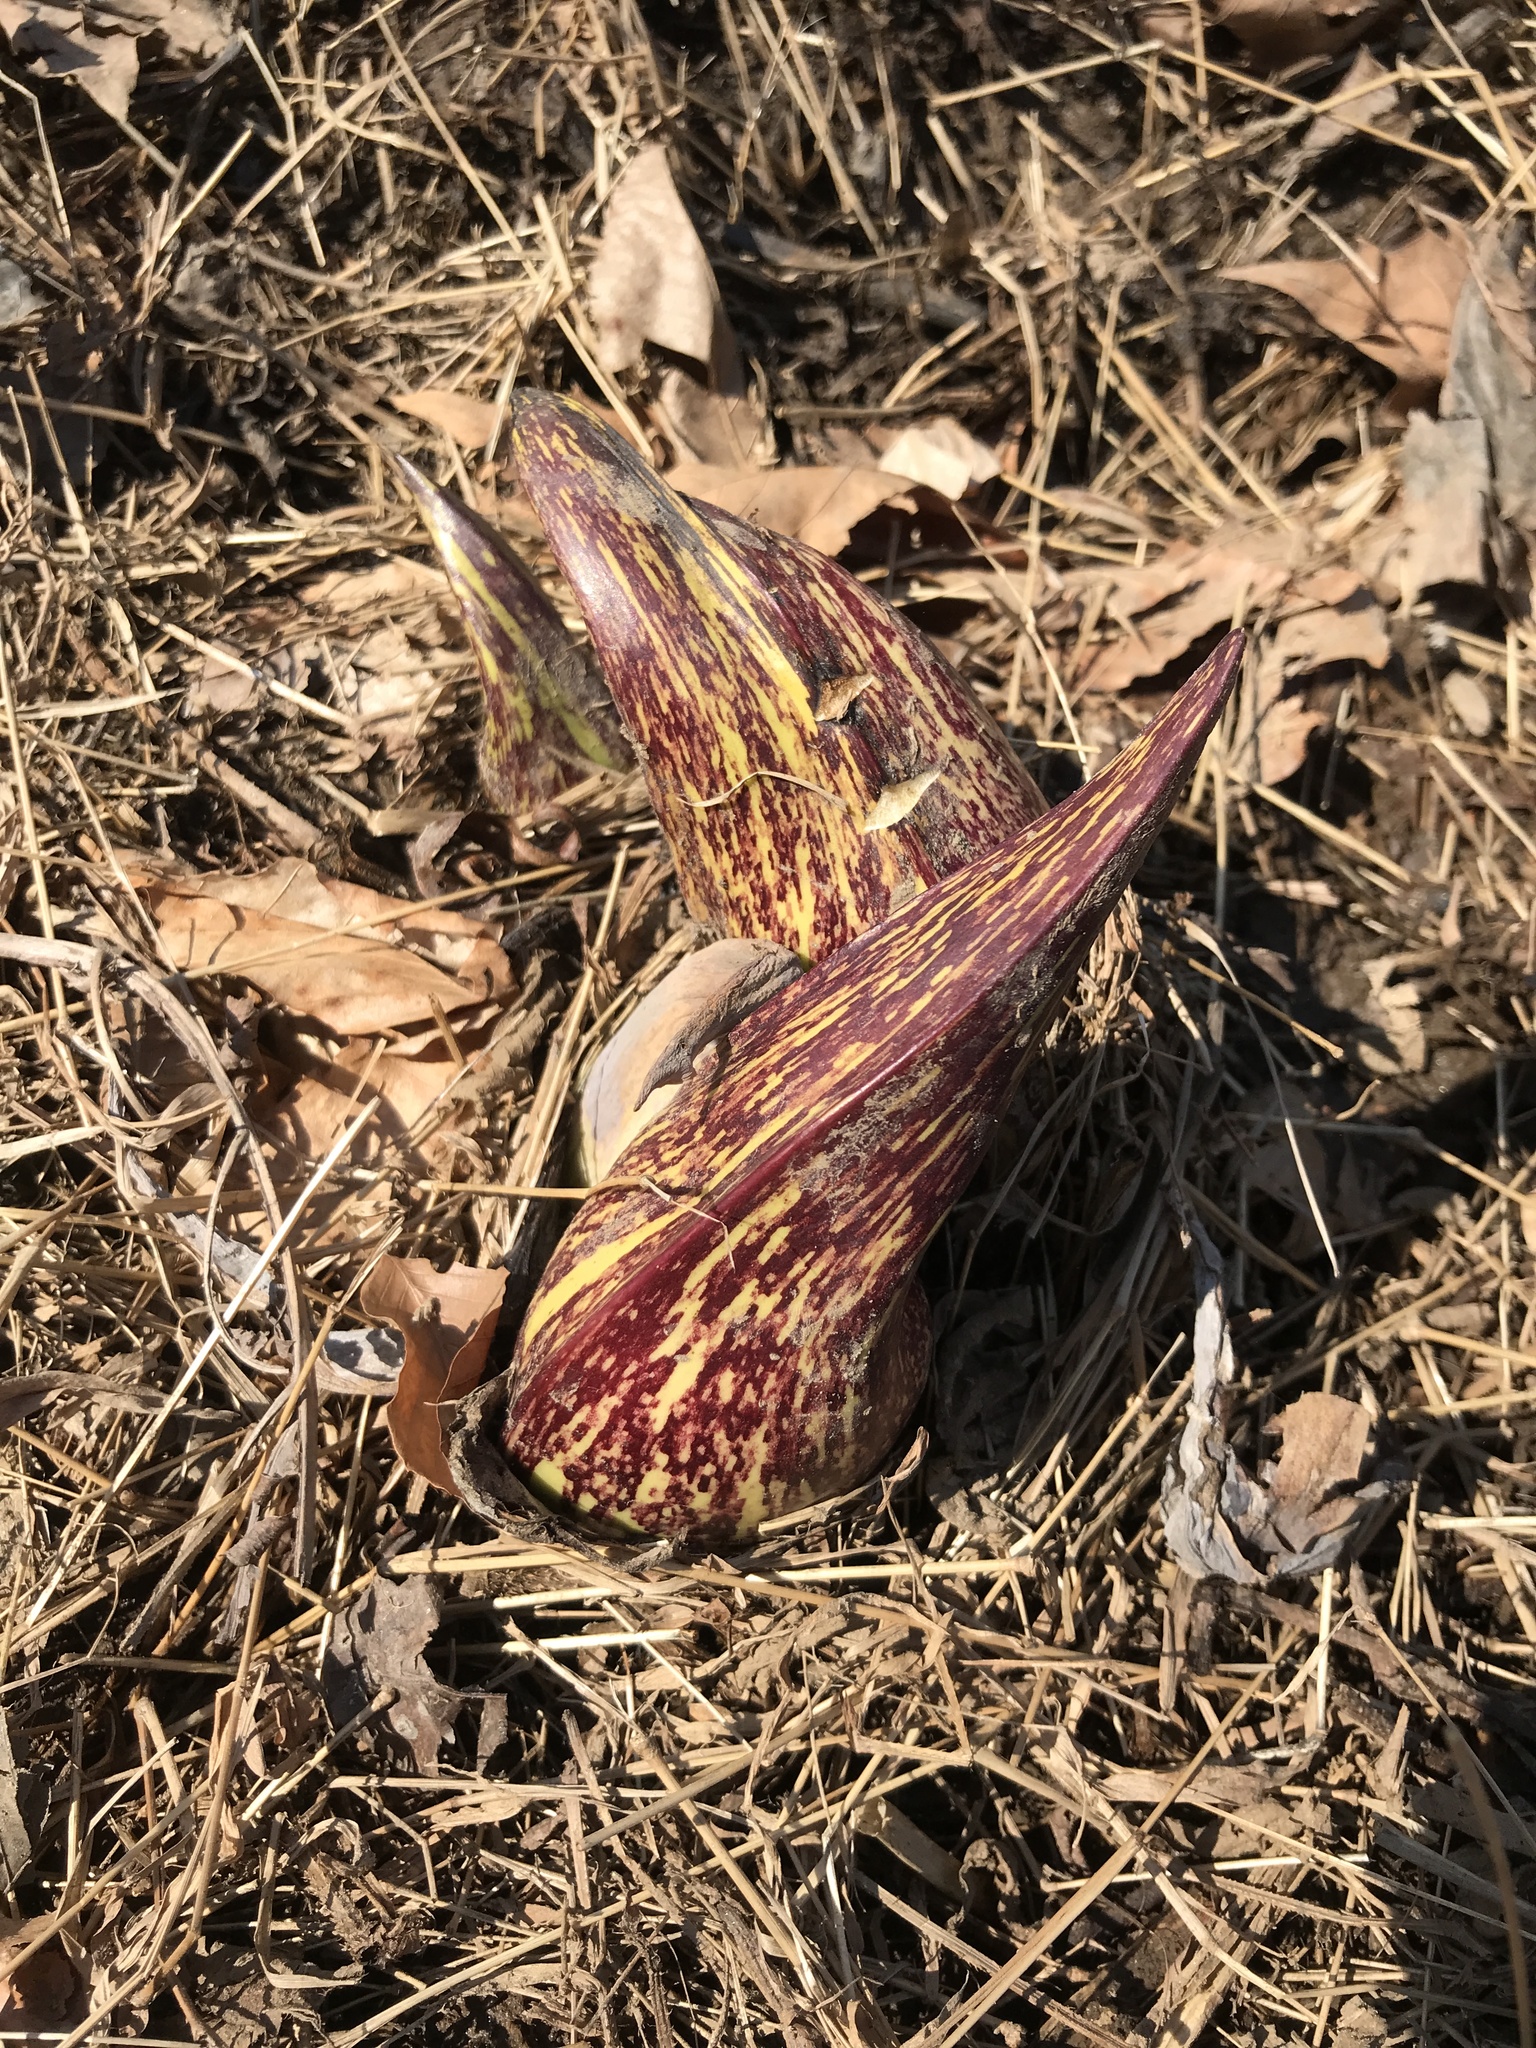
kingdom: Plantae
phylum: Tracheophyta
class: Liliopsida
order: Alismatales
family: Araceae
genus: Symplocarpus
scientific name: Symplocarpus foetidus
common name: Eastern skunk cabbage
